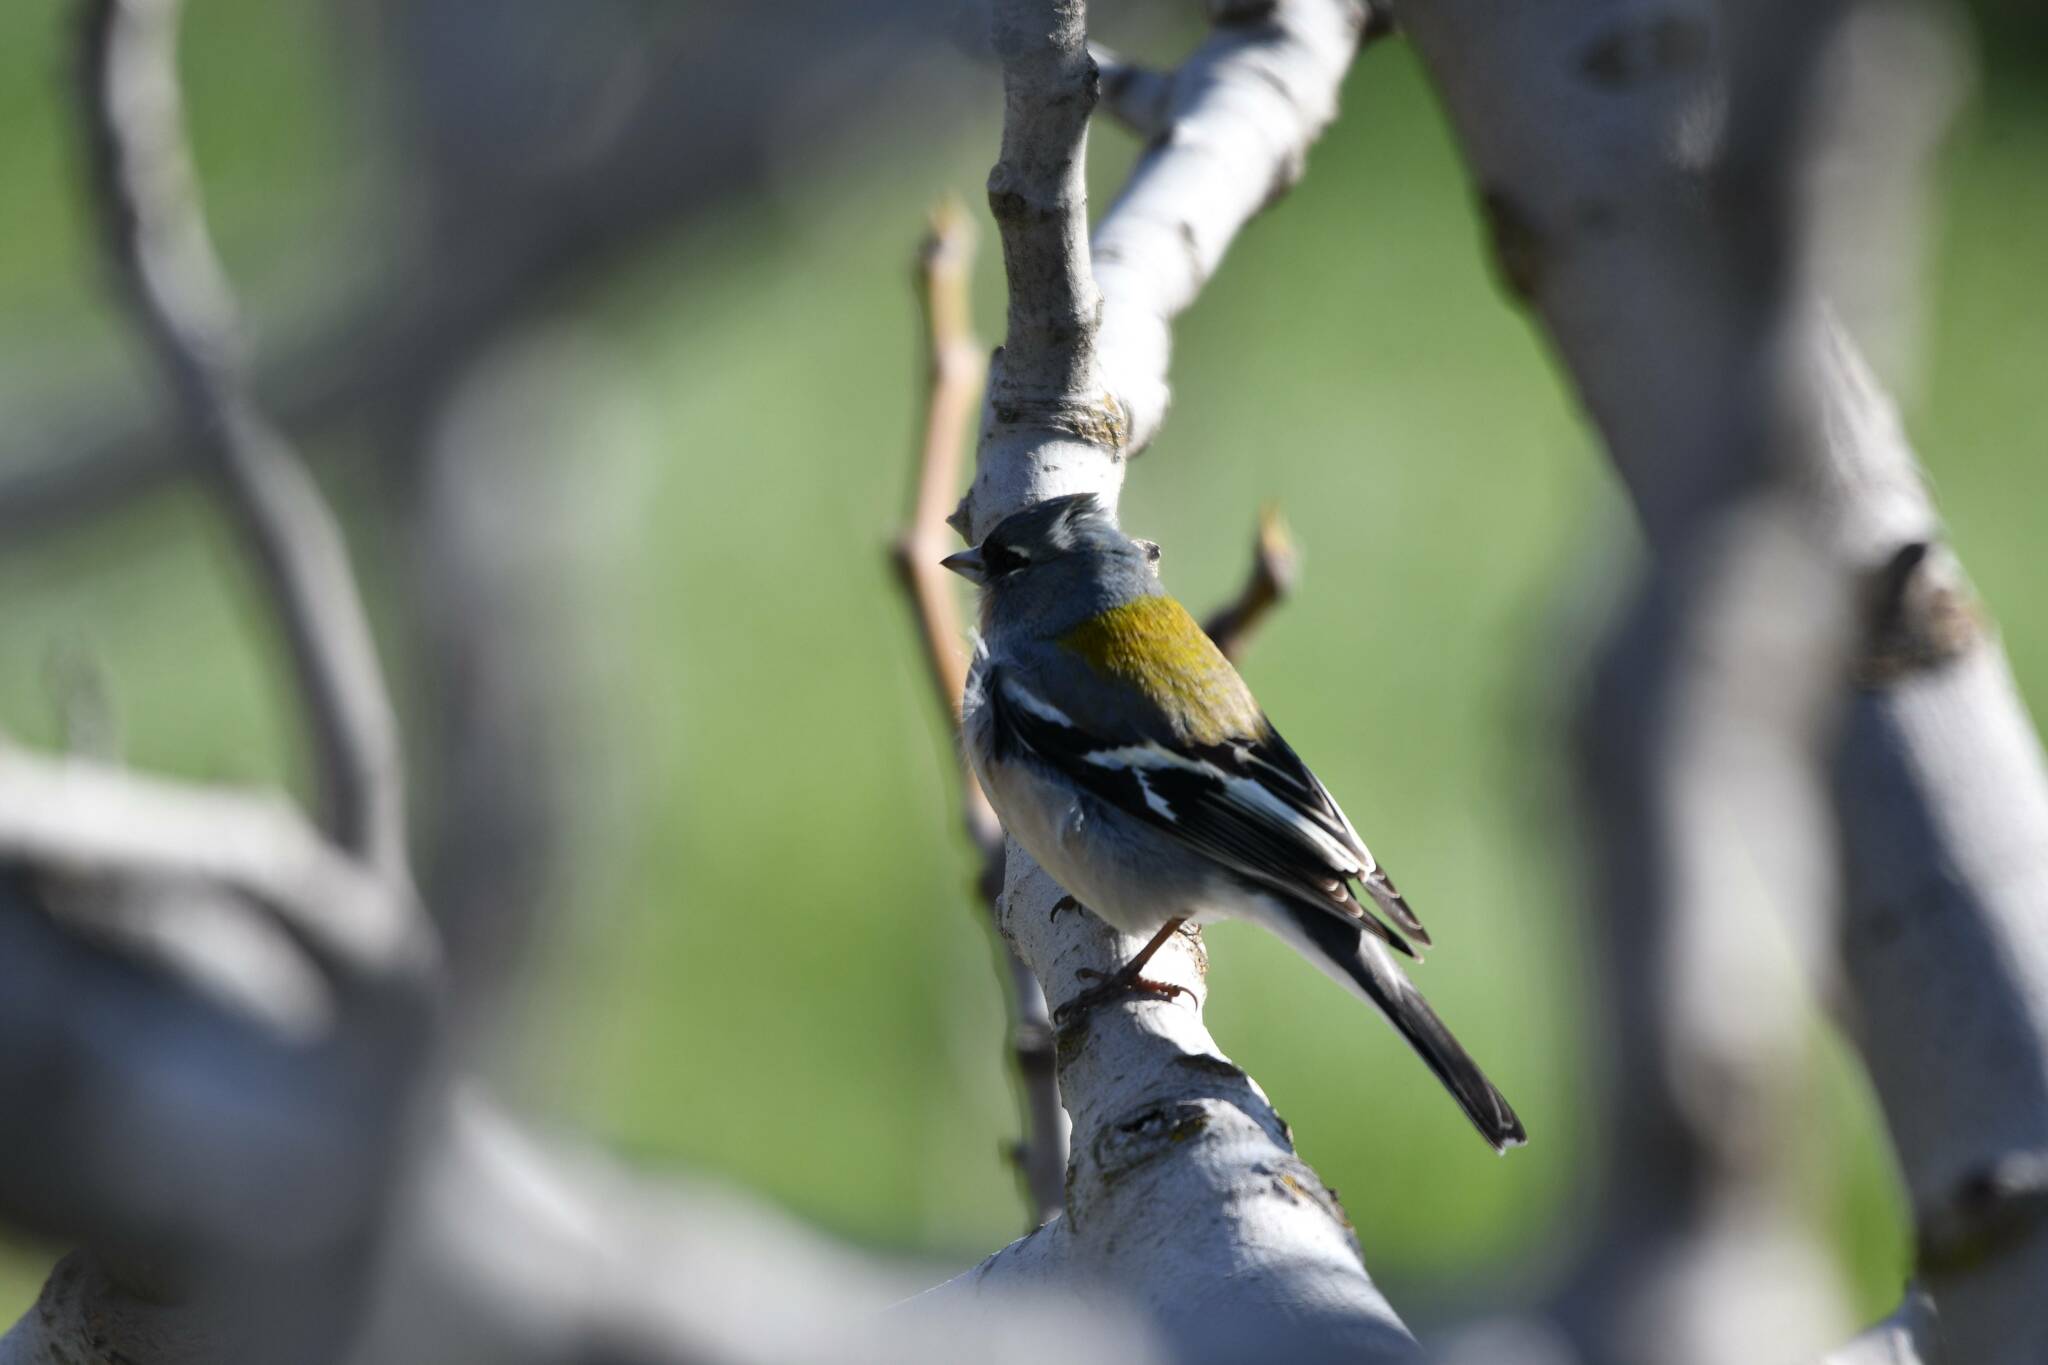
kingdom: Animalia
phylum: Chordata
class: Aves
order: Passeriformes
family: Fringillidae
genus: Fringilla
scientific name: Fringilla spodiogenys
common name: African chaffinch
